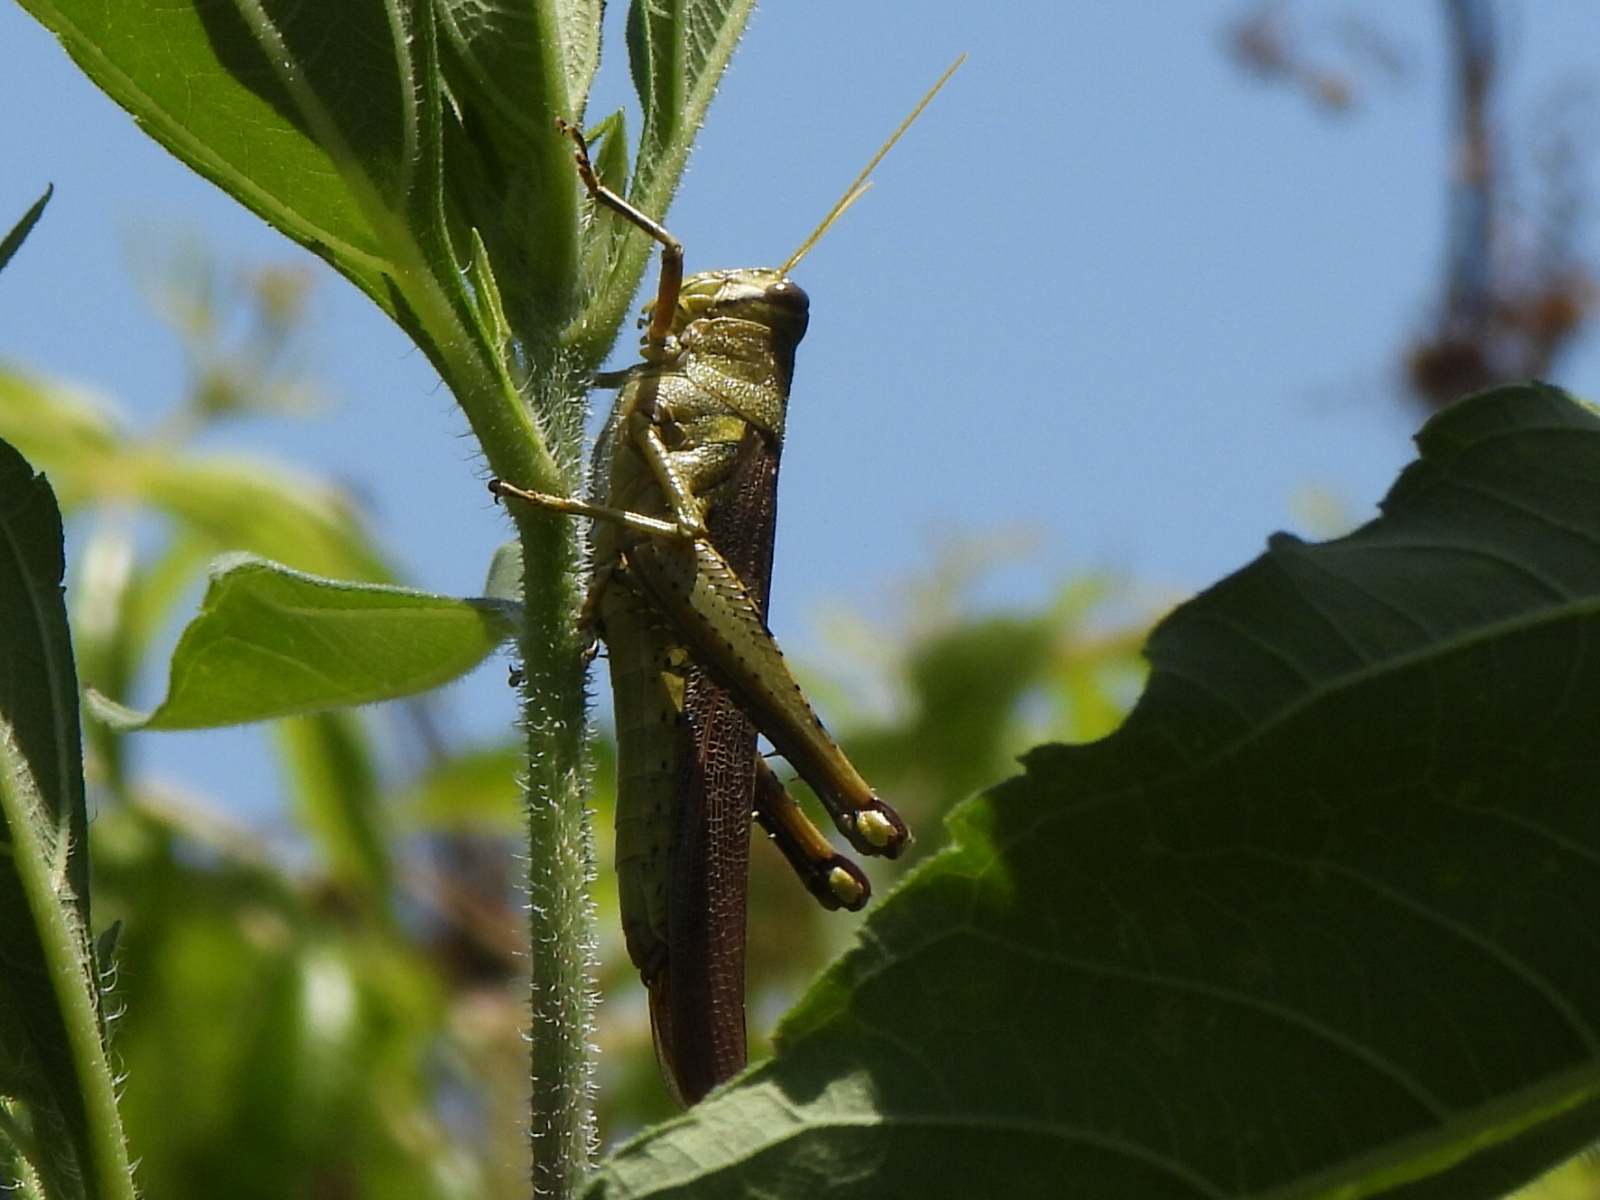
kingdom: Animalia
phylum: Arthropoda
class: Insecta
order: Orthoptera
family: Acrididae
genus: Schistocerca
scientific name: Schistocerca obscura
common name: Obscure bird grasshopper
